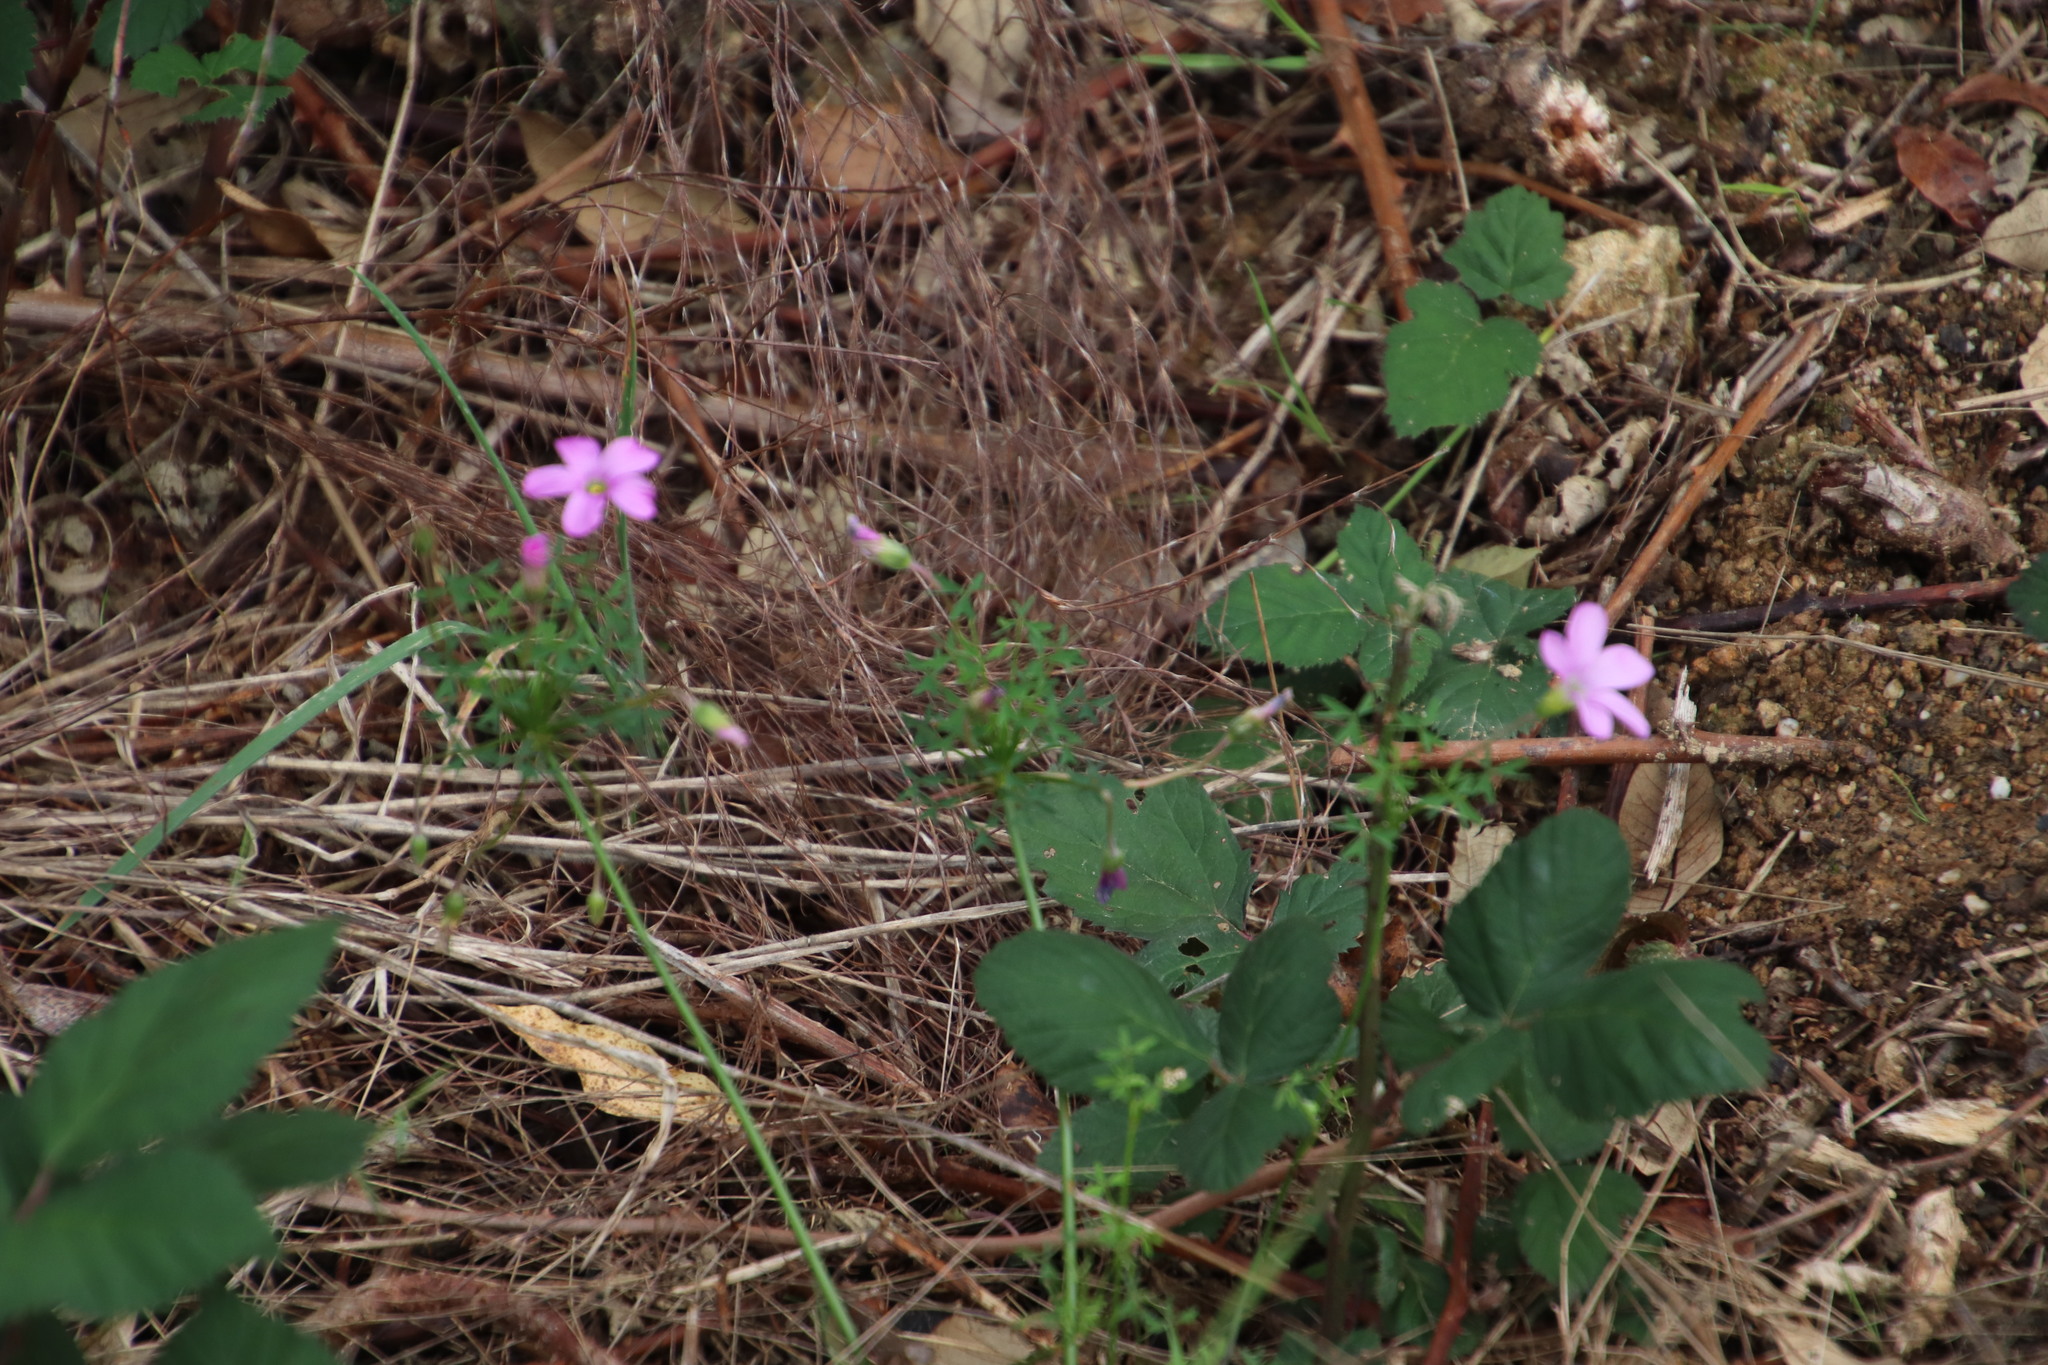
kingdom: Plantae
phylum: Tracheophyta
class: Magnoliopsida
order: Oxalidales
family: Oxalidaceae
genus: Oxalis
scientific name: Oxalis bifida
